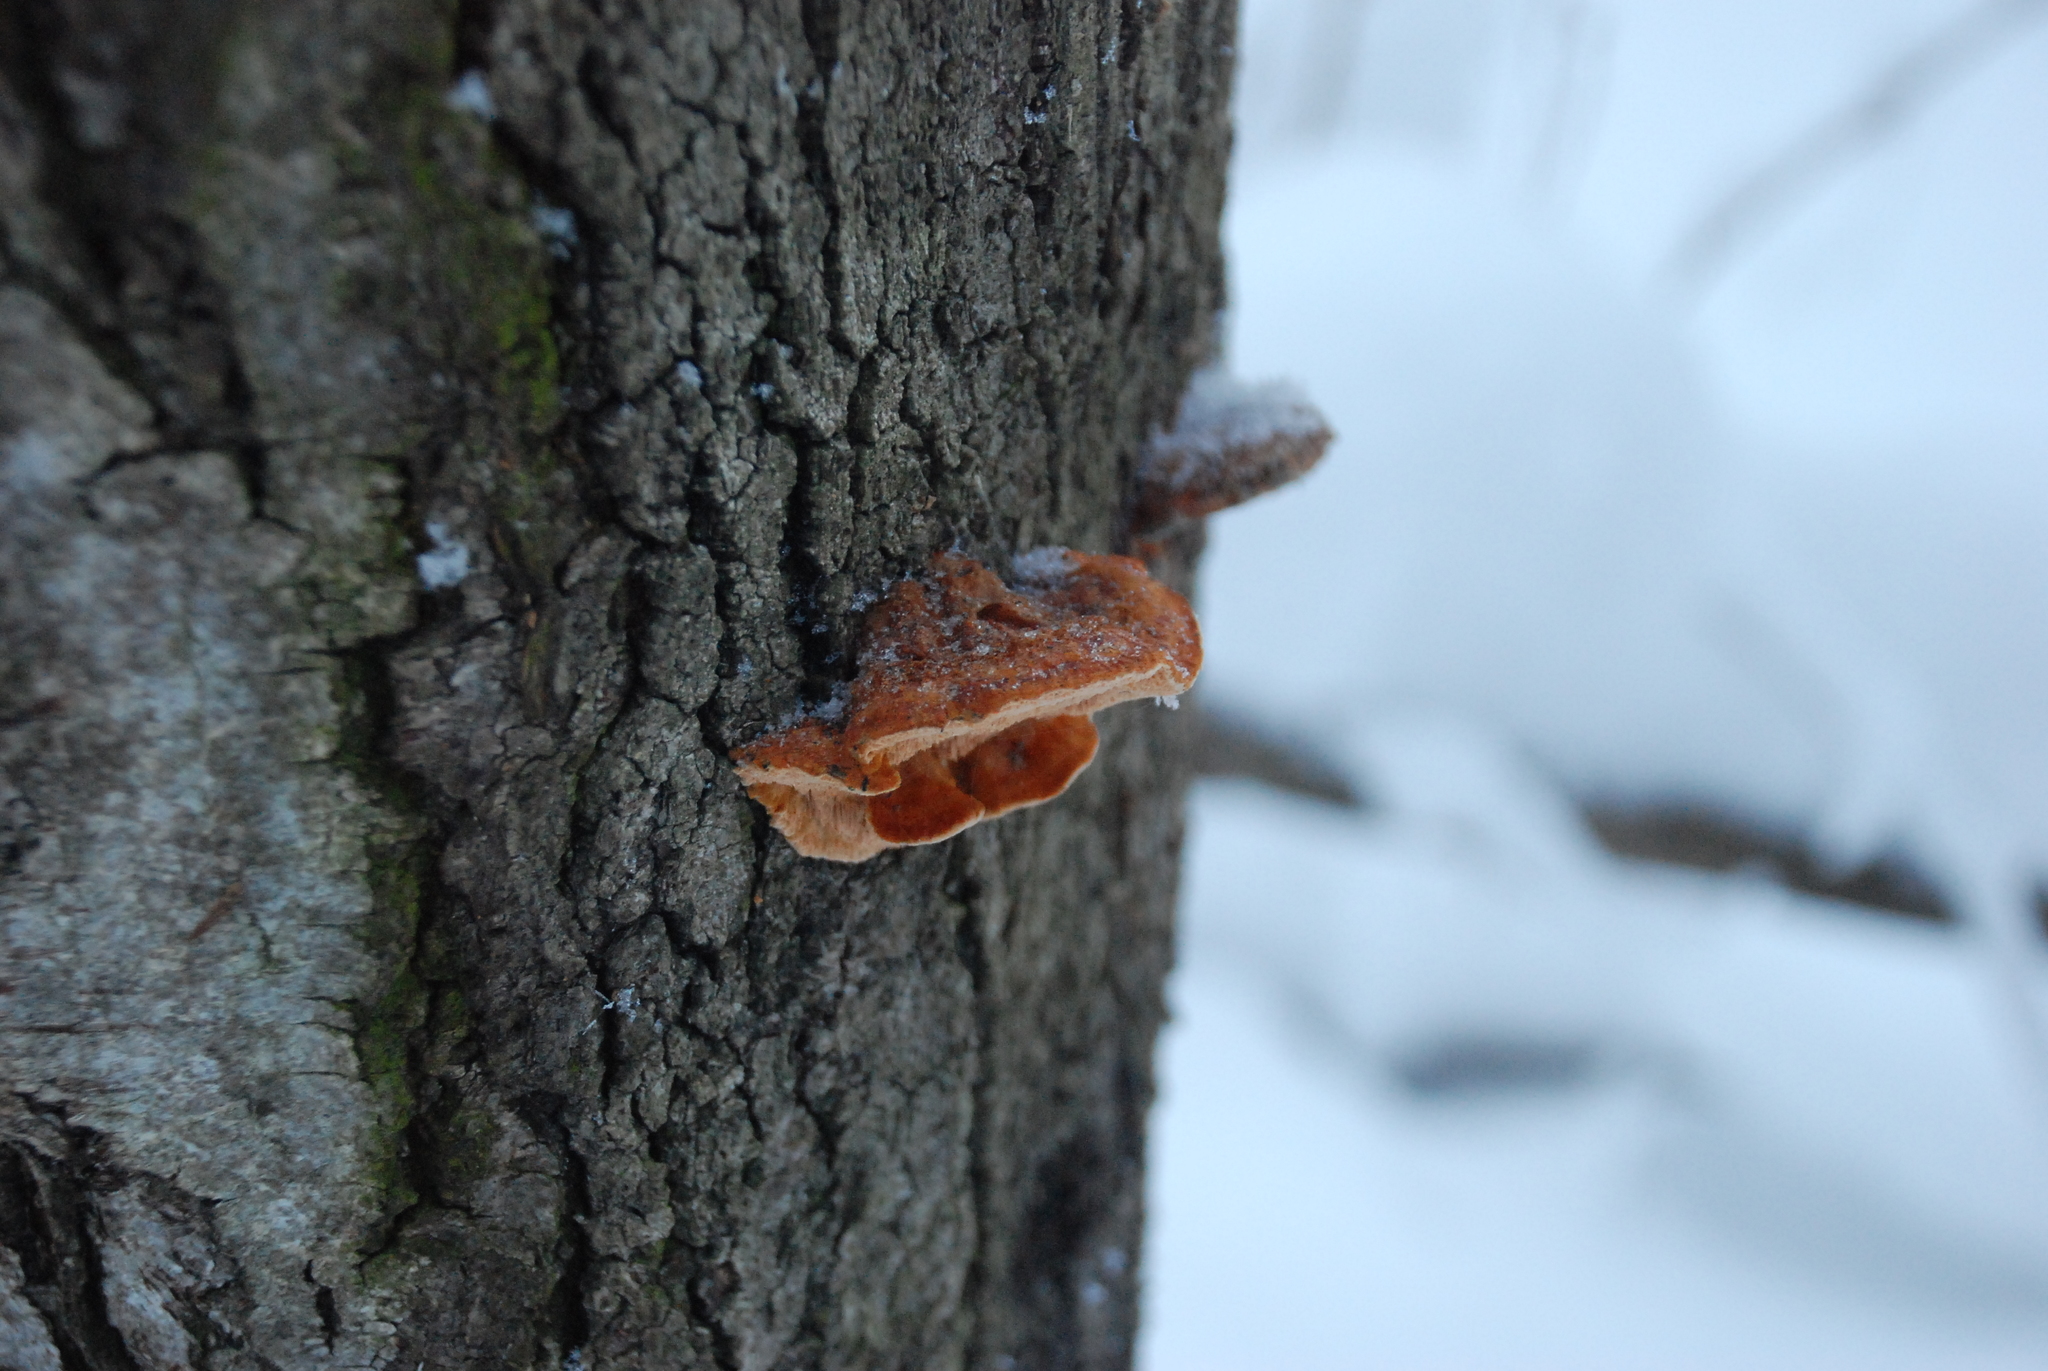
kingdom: Fungi
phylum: Basidiomycota
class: Agaricomycetes
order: Hymenochaetales
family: Hymenochaetaceae
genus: Inocutis
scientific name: Inocutis rheades
